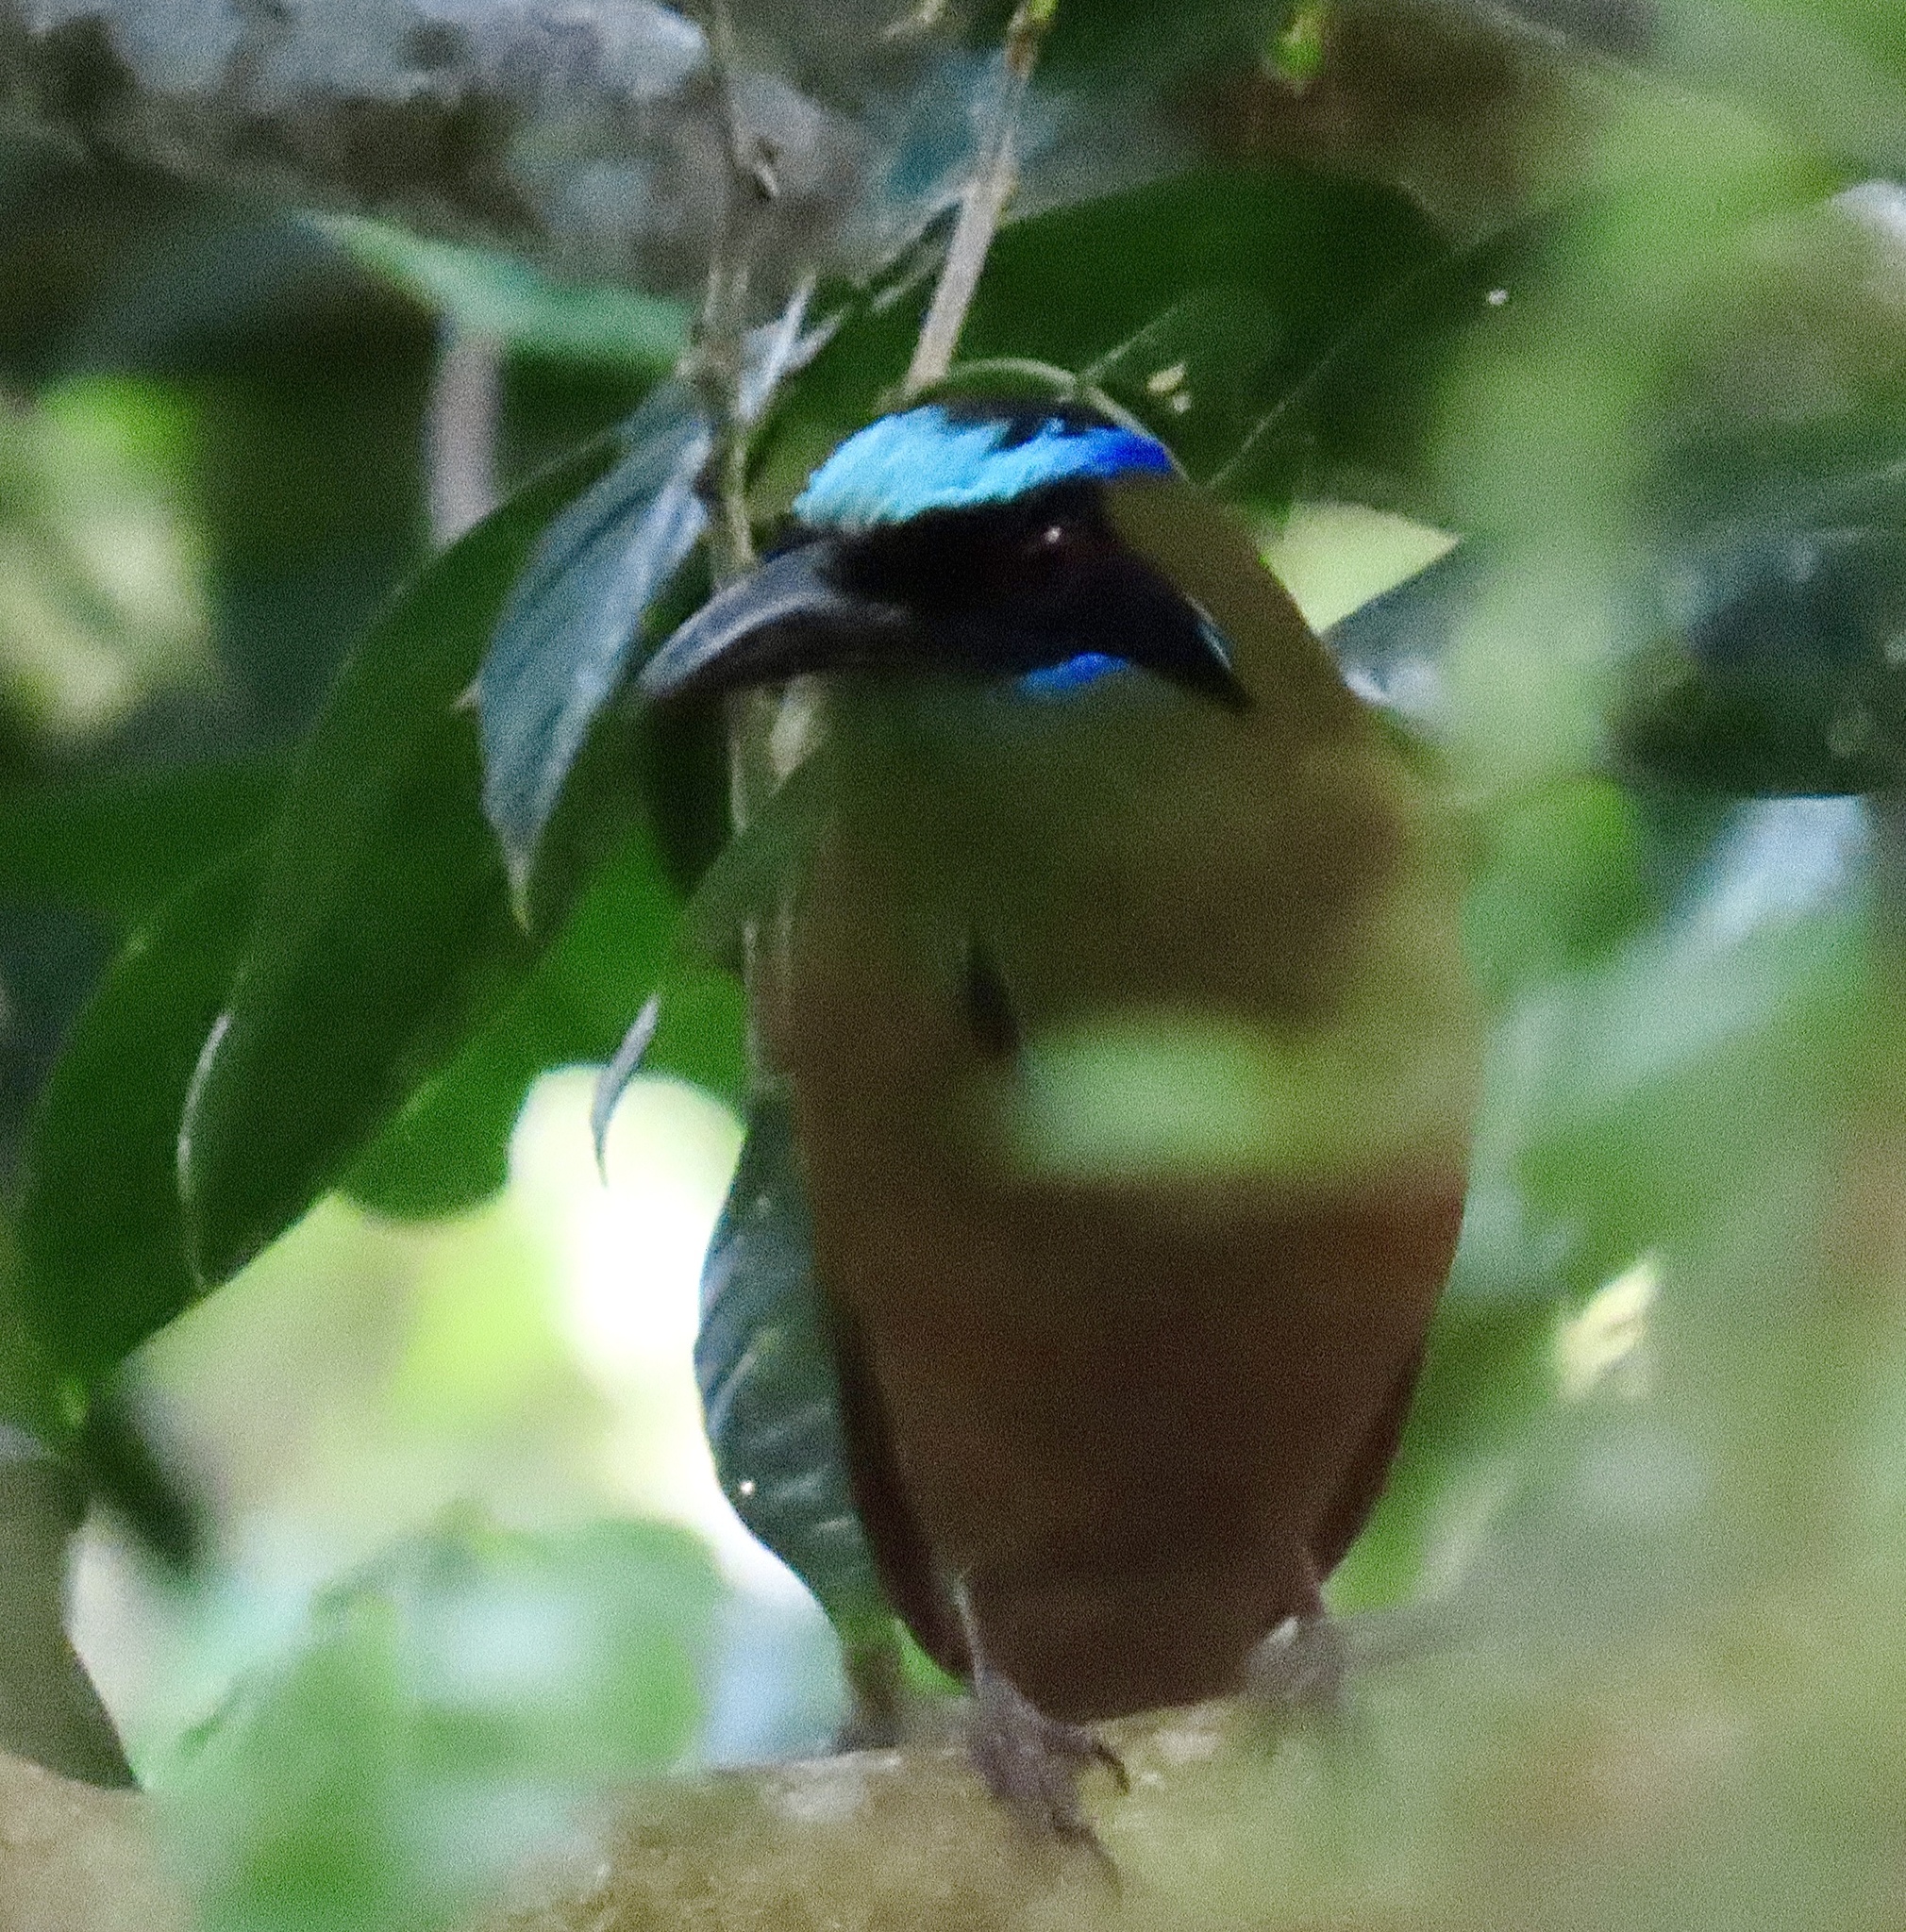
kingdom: Animalia
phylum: Chordata
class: Aves
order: Coraciiformes
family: Momotidae
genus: Momotus
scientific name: Momotus subrufescens
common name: Whooping motmot
